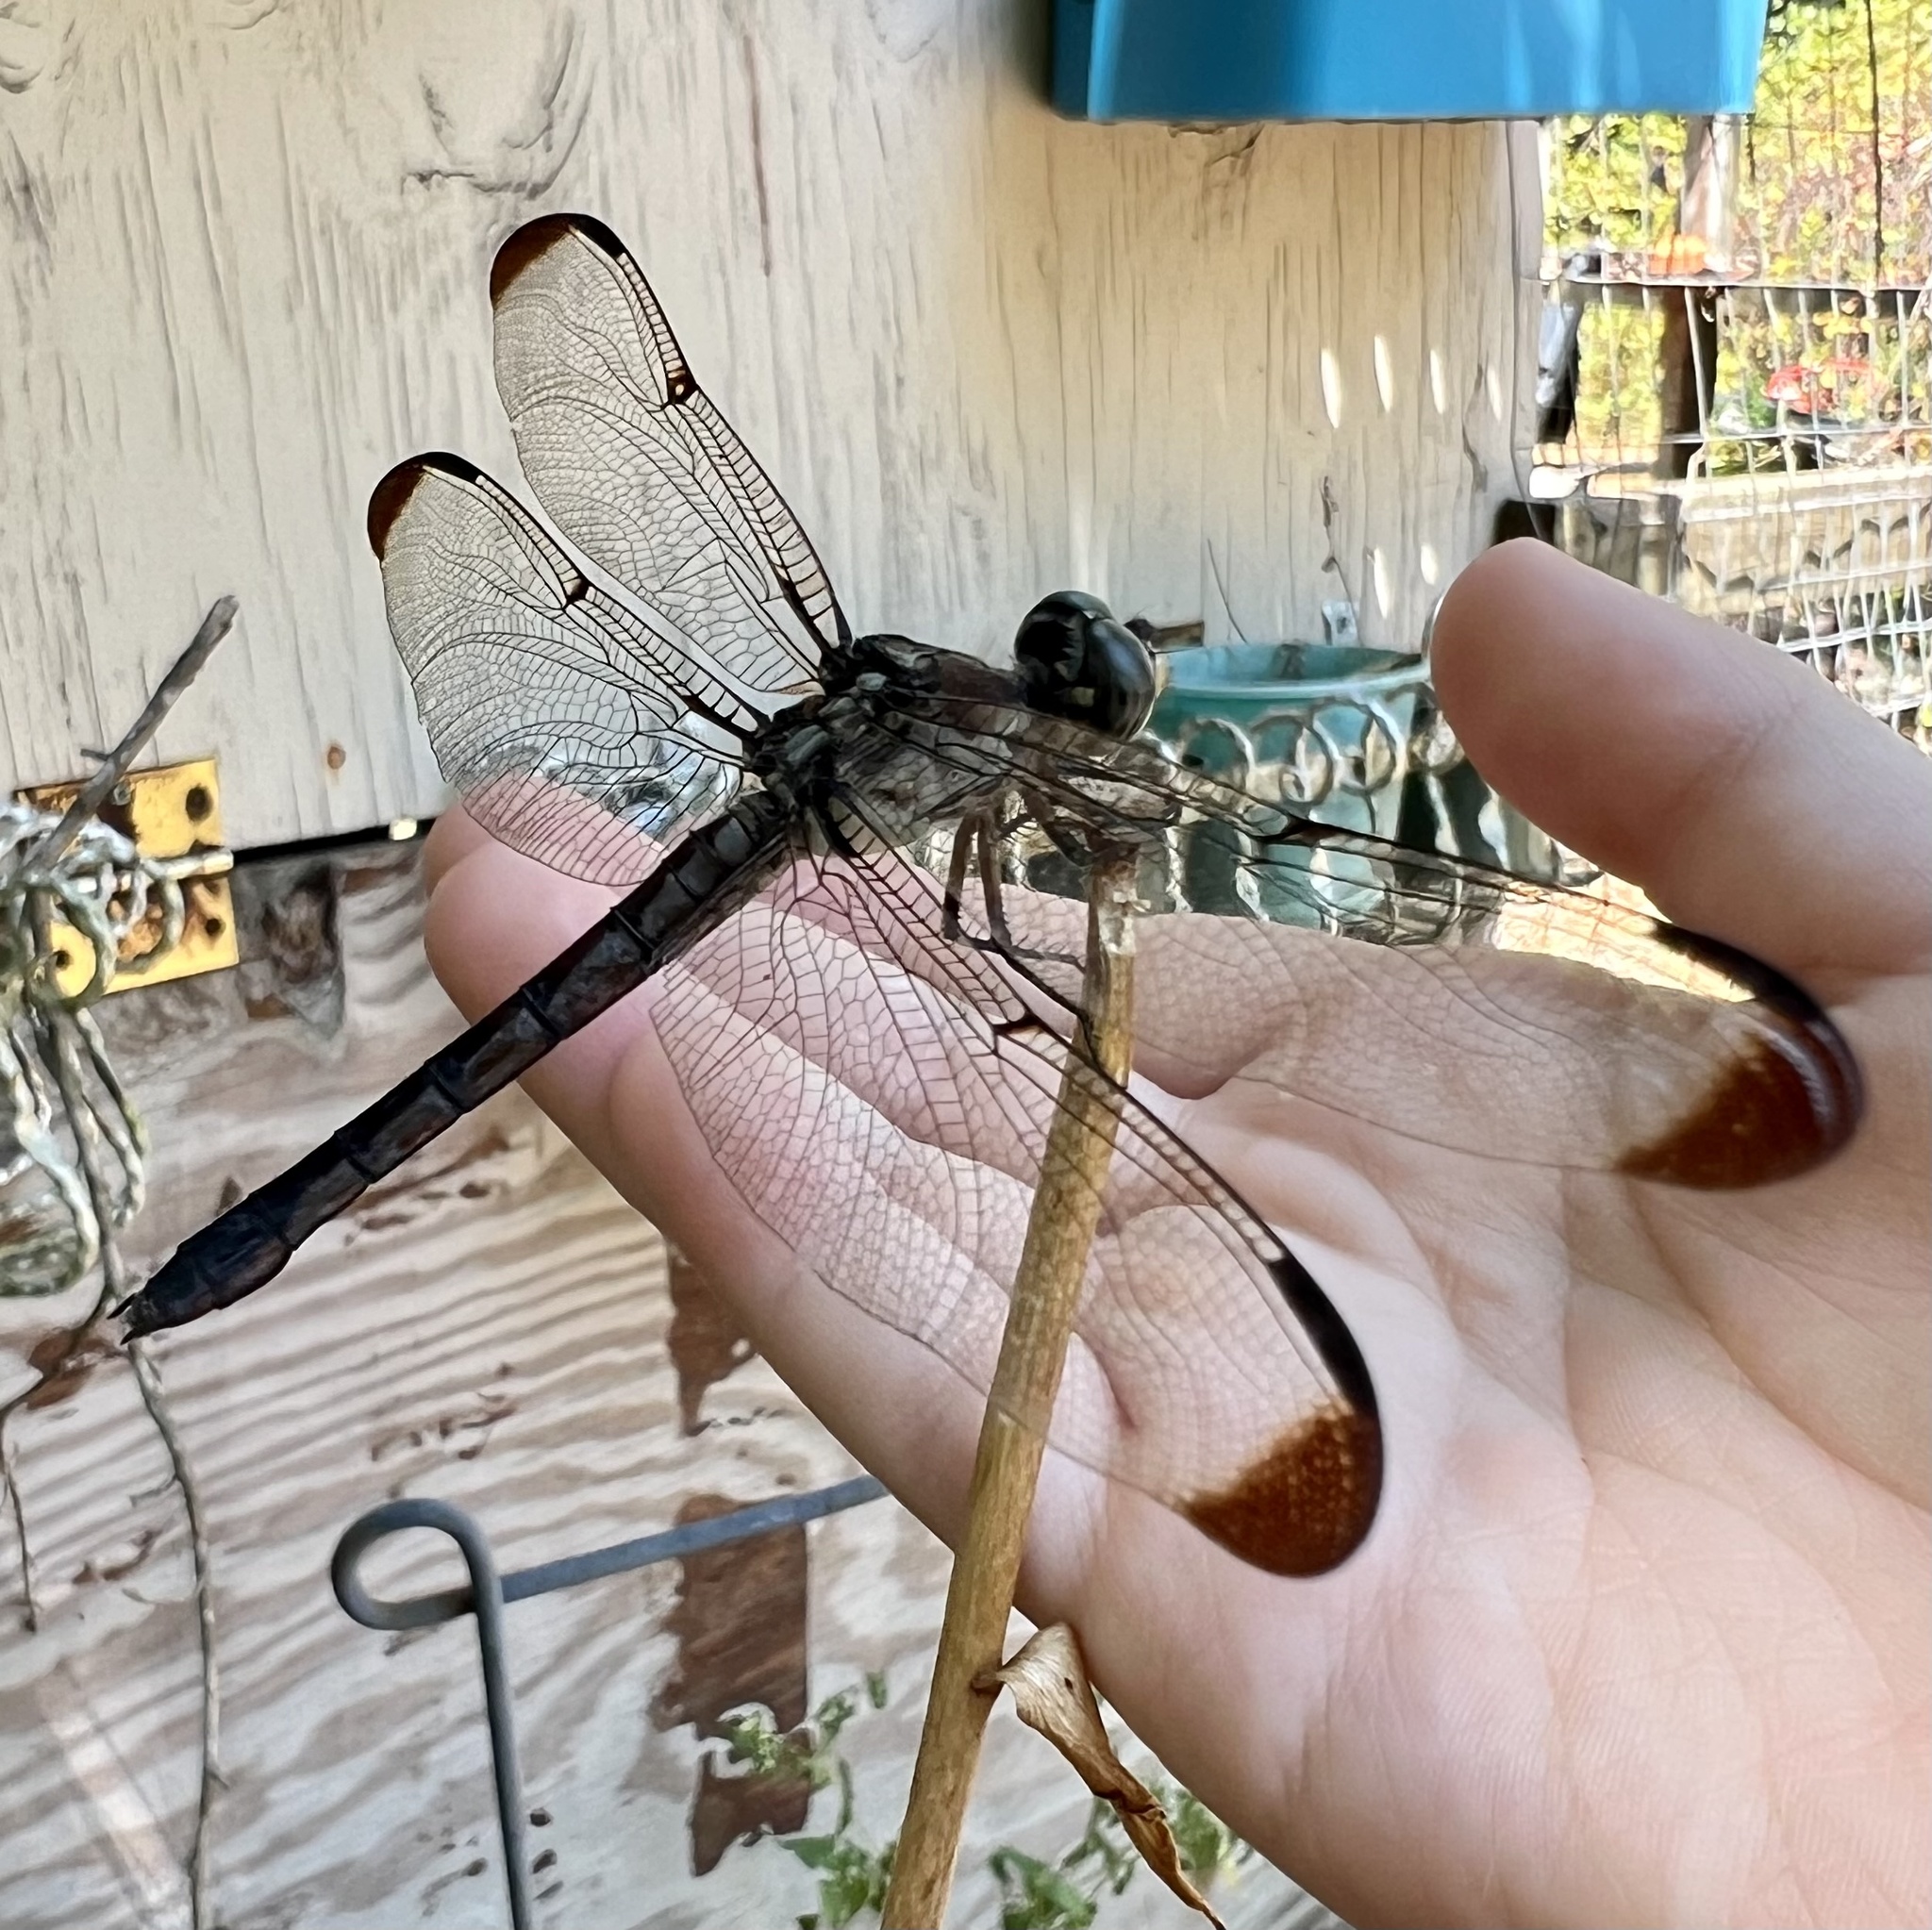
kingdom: Animalia
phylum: Arthropoda
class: Insecta
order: Odonata
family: Libellulidae
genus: Libellula
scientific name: Libellula vibrans
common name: Great blue skimmer
